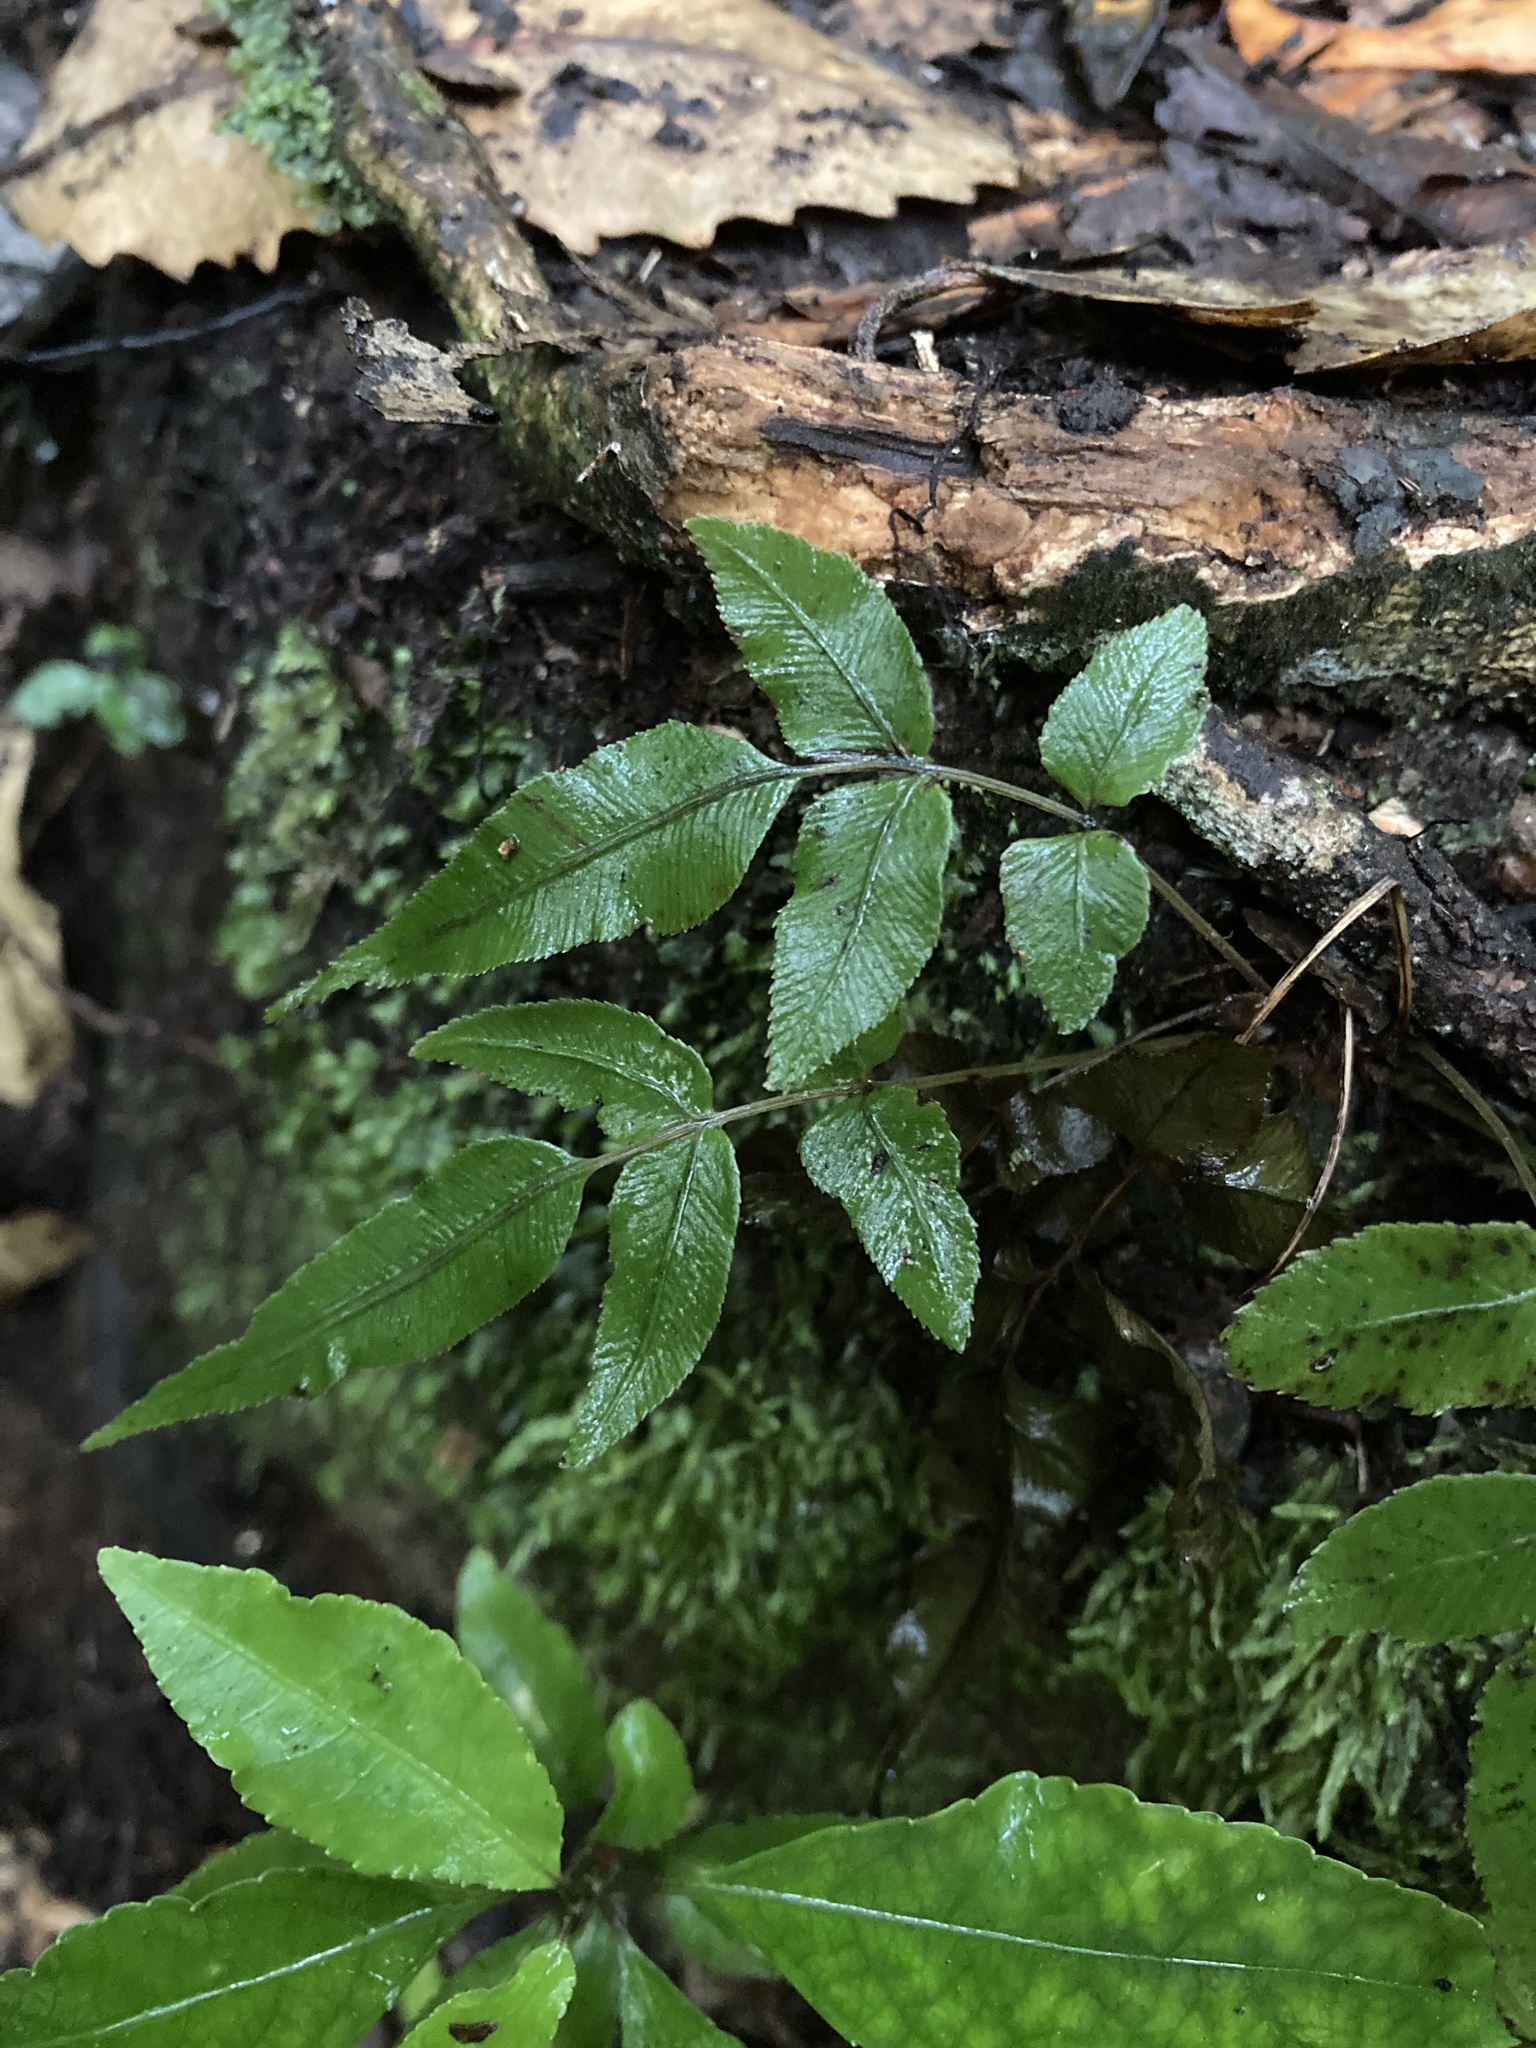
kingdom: Plantae
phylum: Tracheophyta
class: Polypodiopsida
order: Polypodiales
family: Aspleniaceae
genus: Asplenium
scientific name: Asplenium oblongifolium
